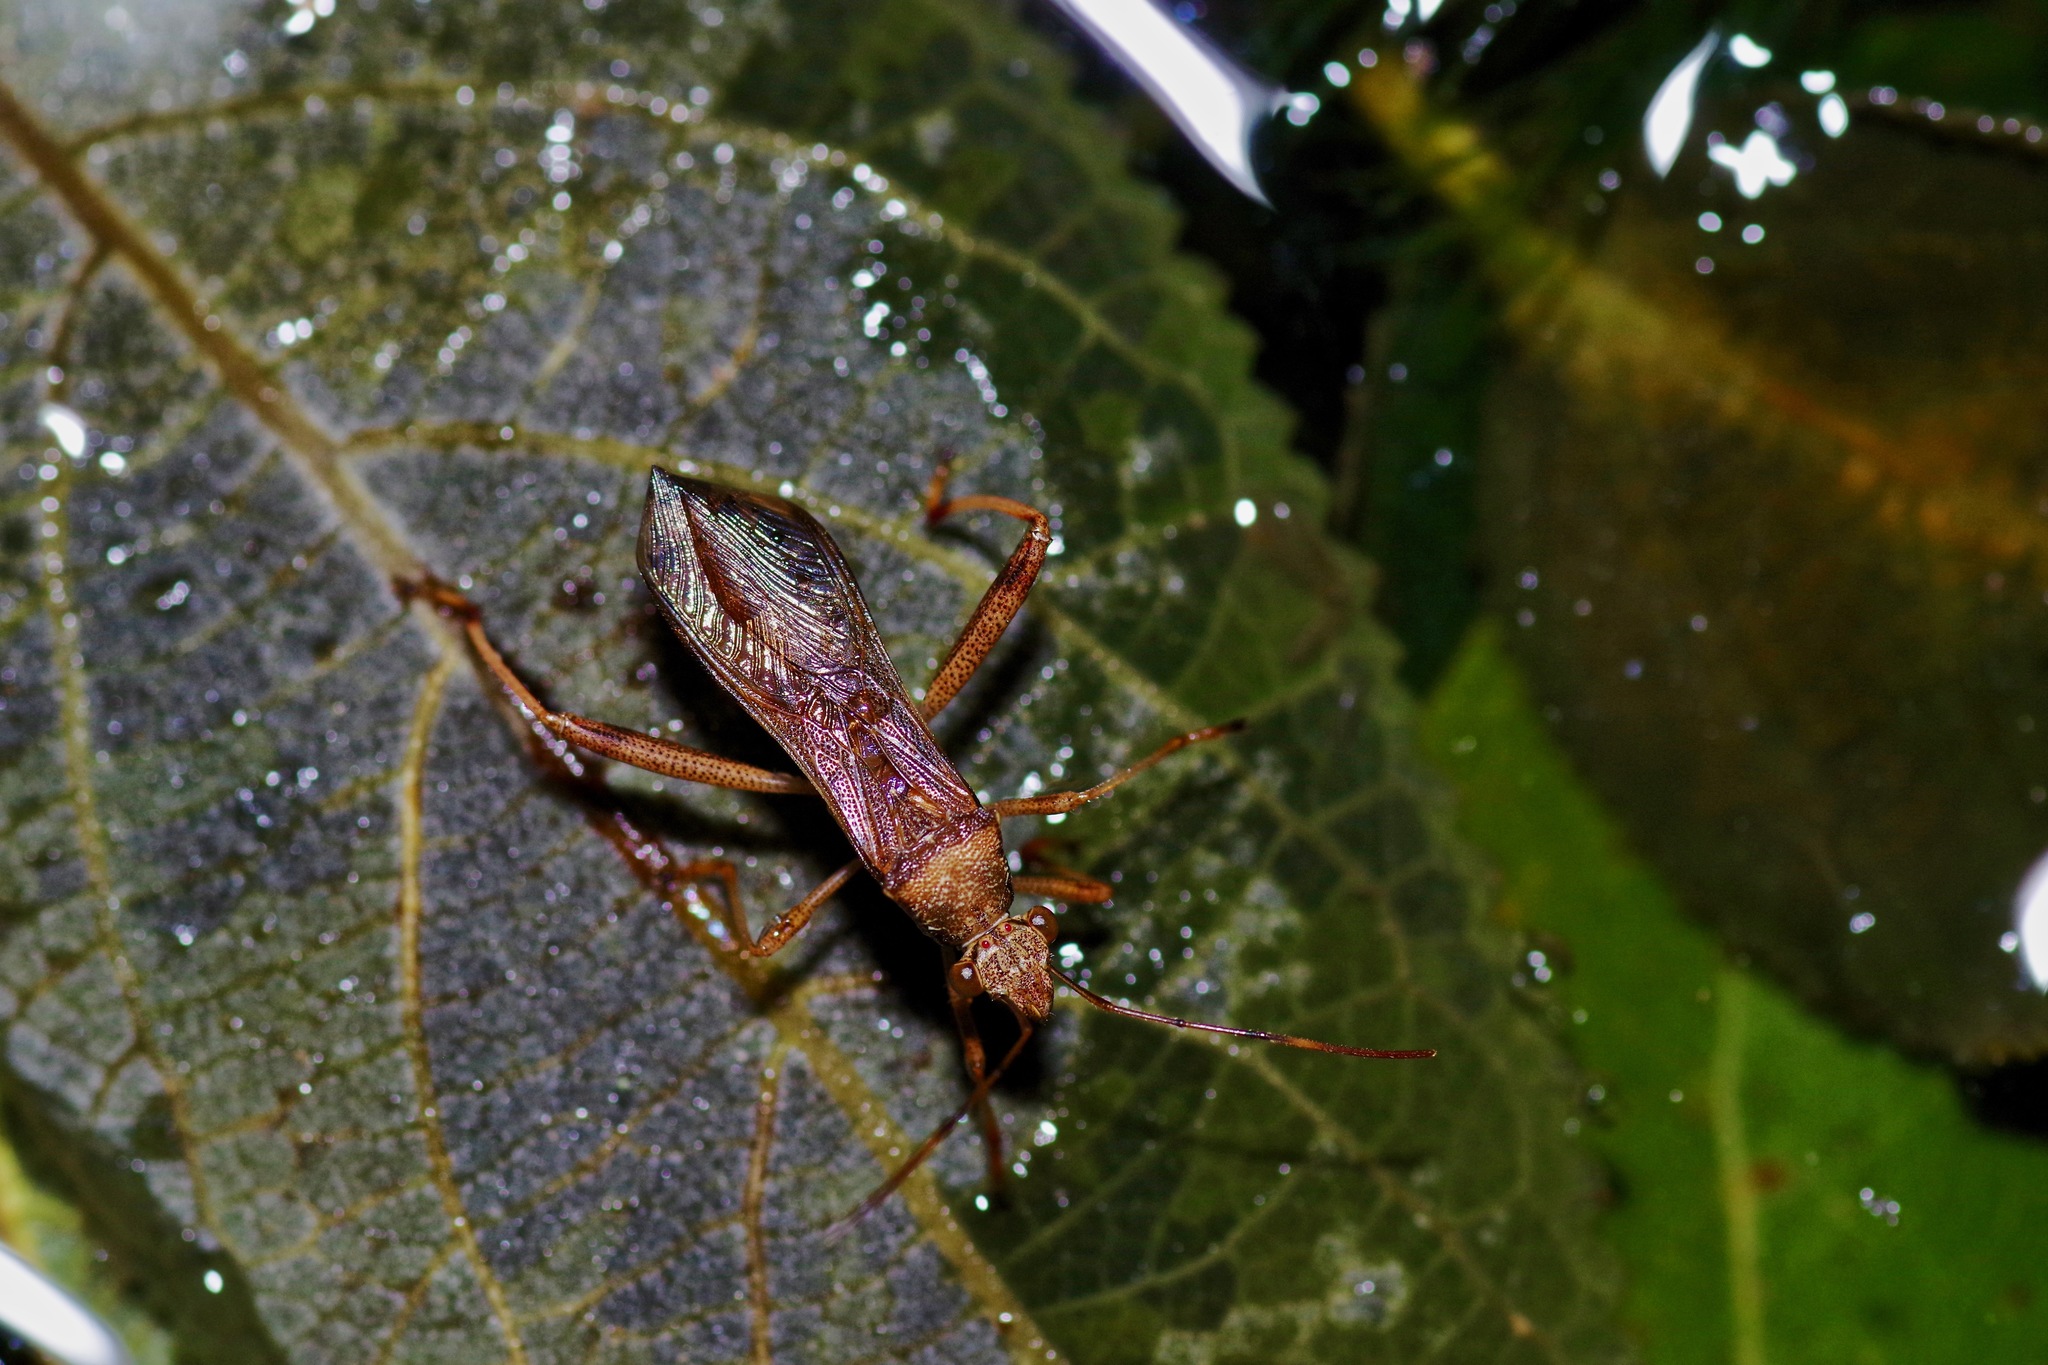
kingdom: Animalia
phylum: Arthropoda
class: Insecta
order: Hemiptera
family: Alydidae
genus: Hyalymenus
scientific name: Hyalymenus tarsatus
